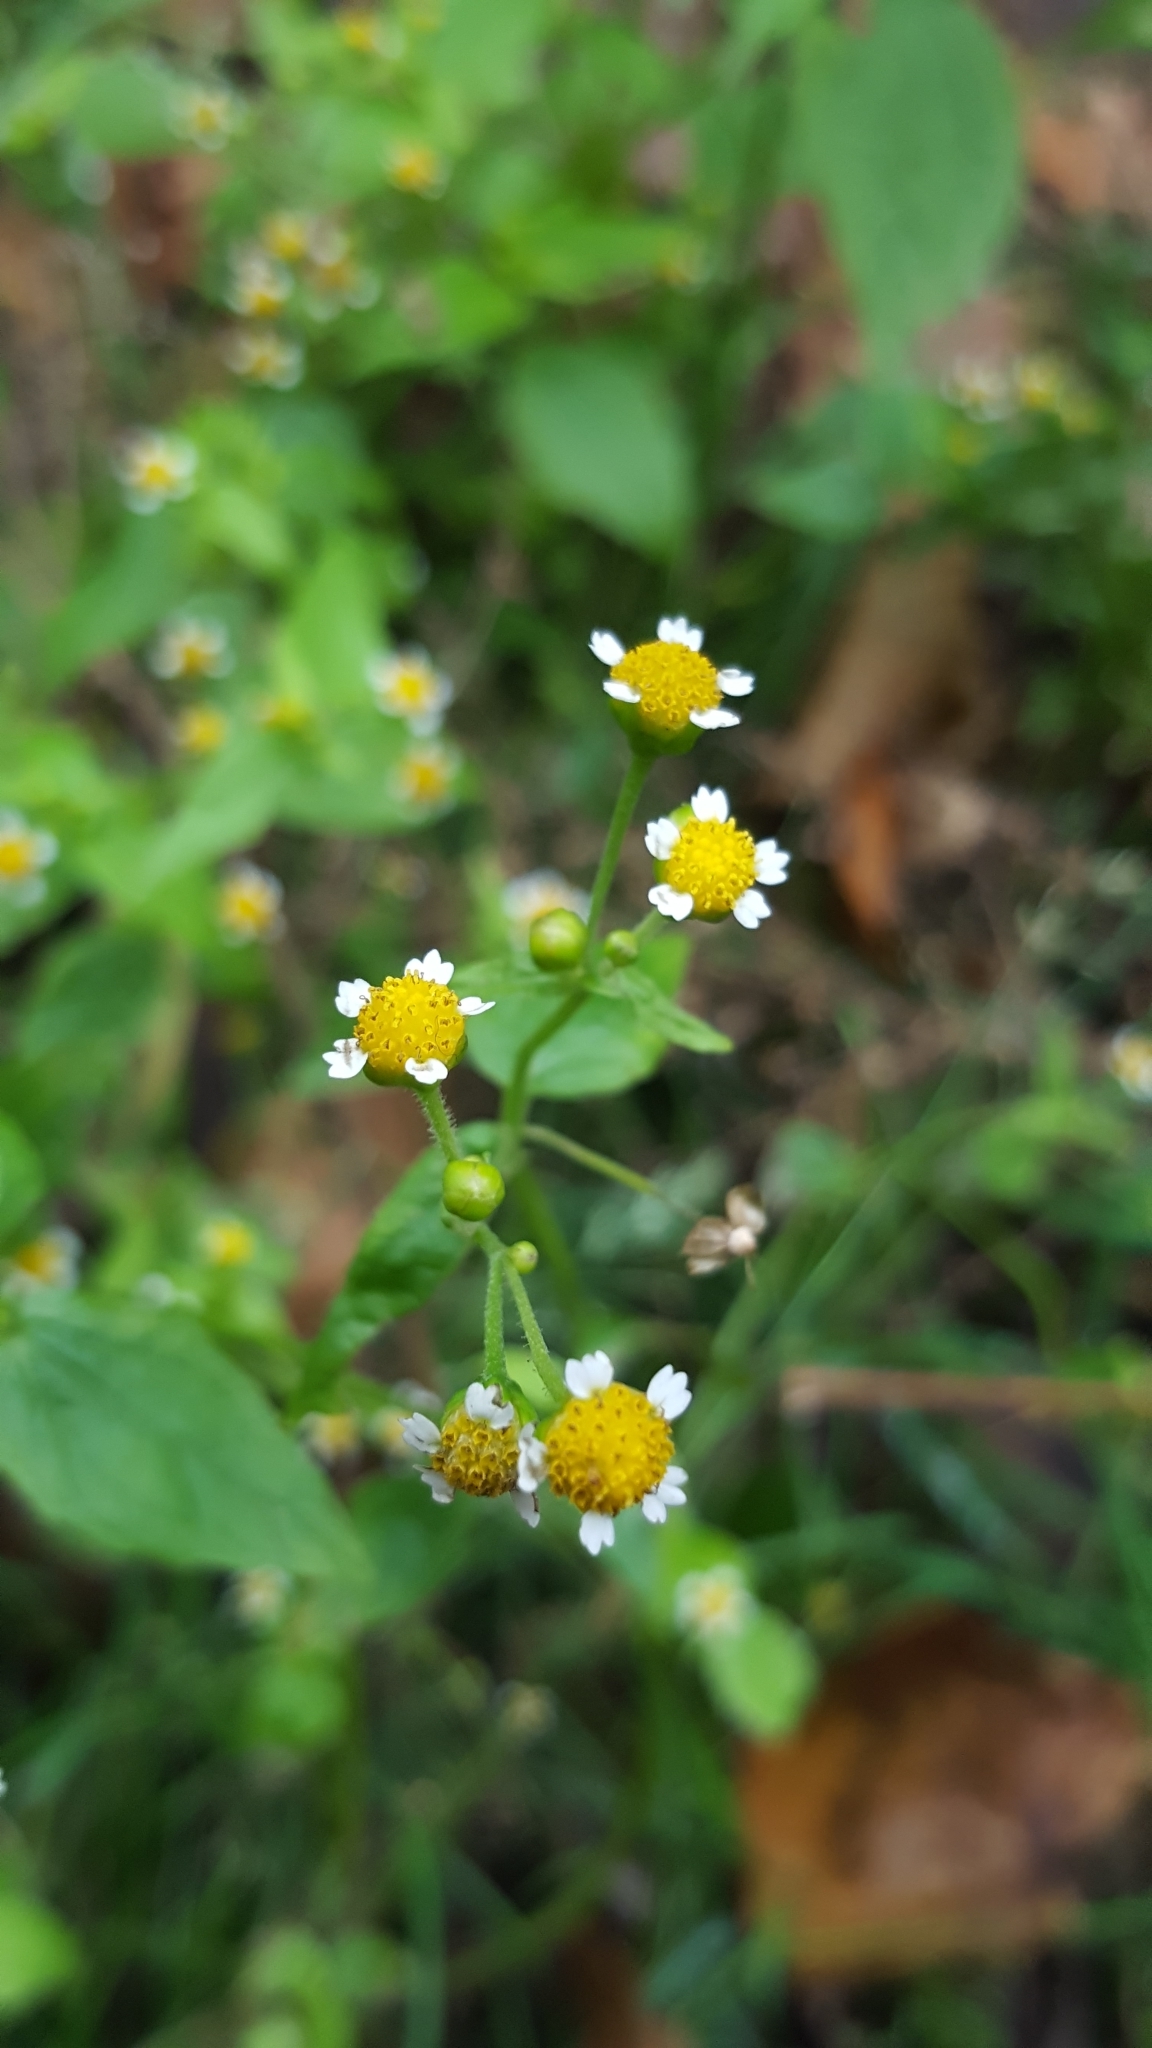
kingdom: Plantae
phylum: Tracheophyta
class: Magnoliopsida
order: Asterales
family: Asteraceae
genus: Galinsoga
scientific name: Galinsoga parviflora
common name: Gallant soldier
